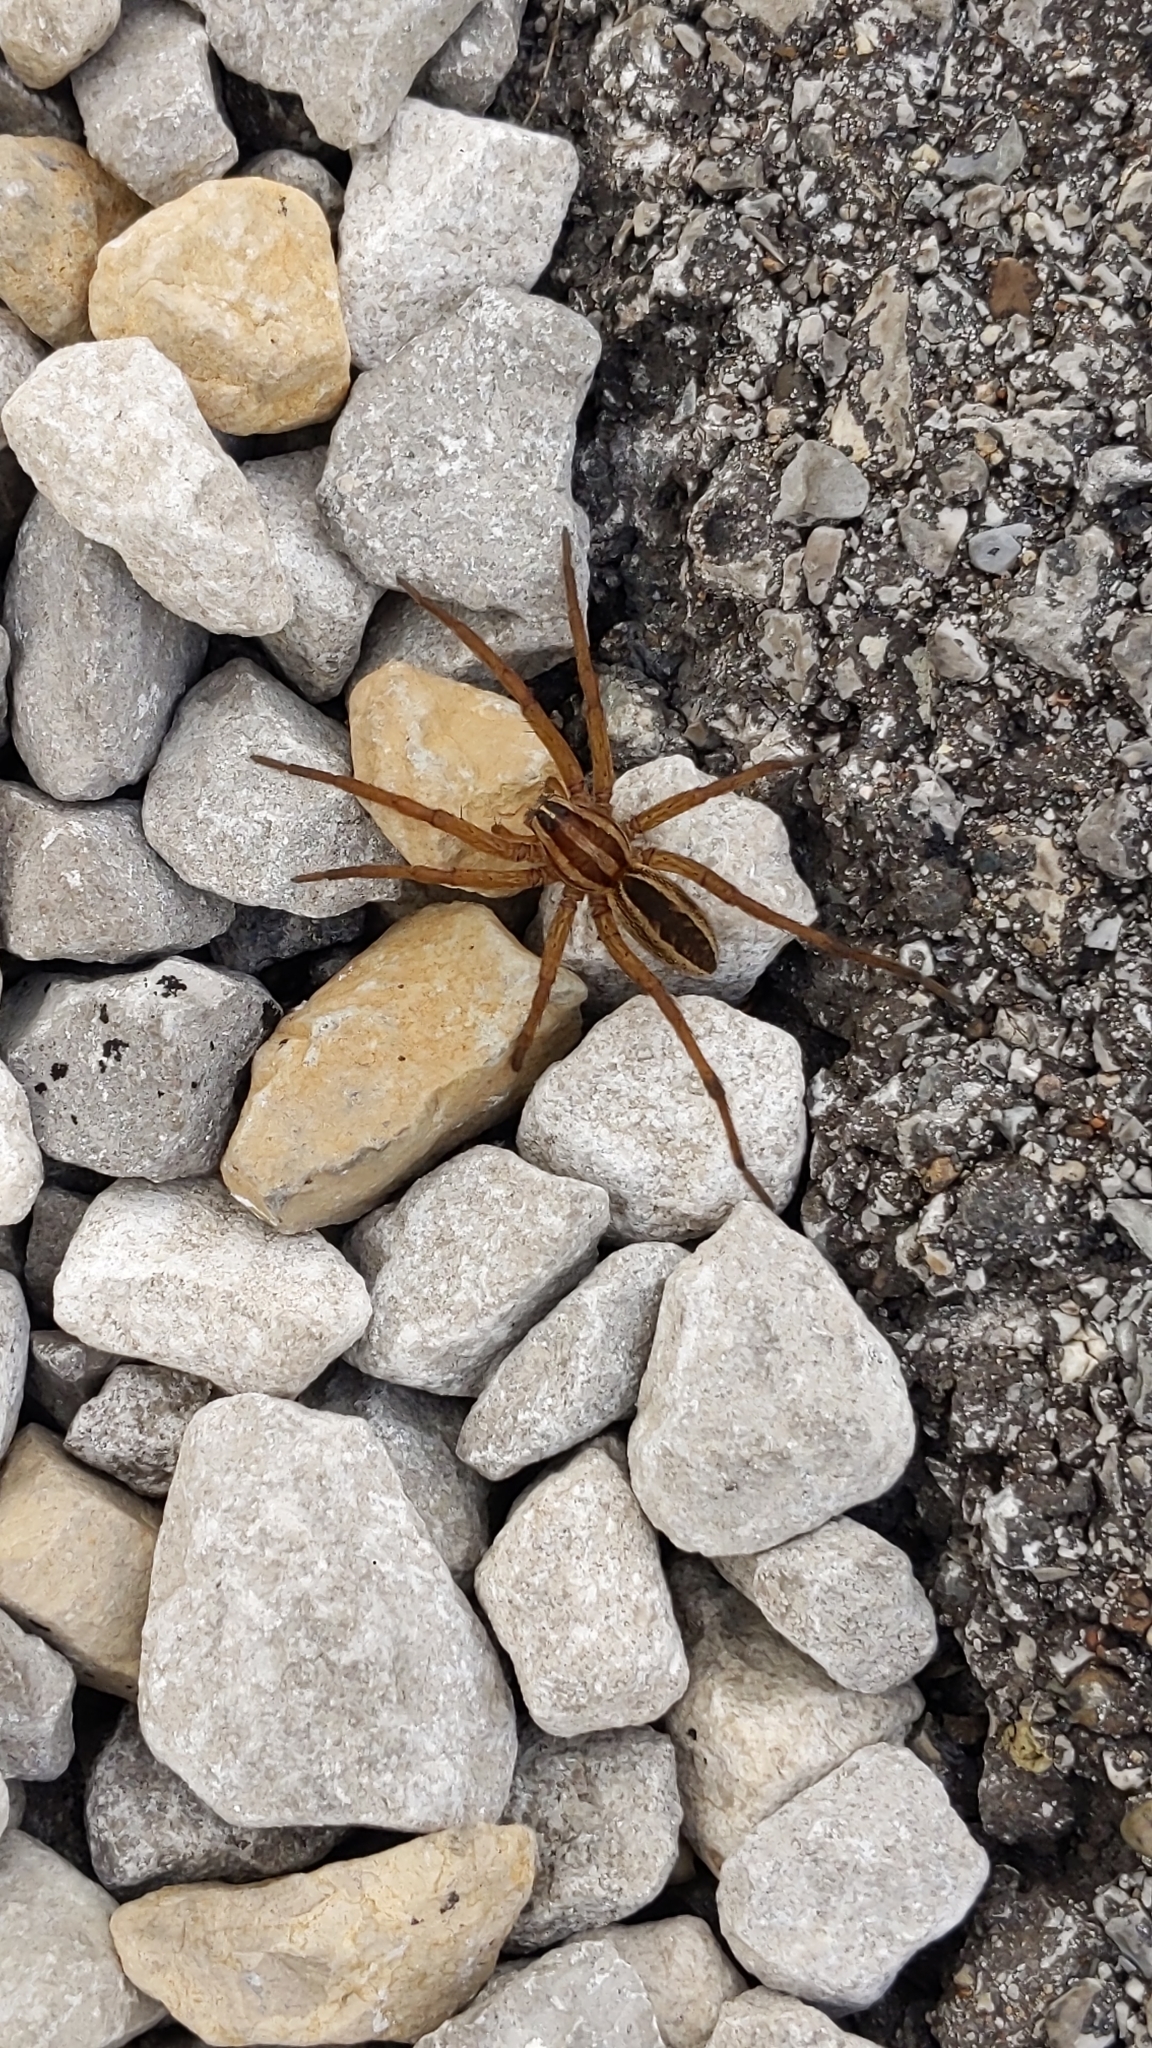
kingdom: Animalia
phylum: Arthropoda
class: Arachnida
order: Araneae
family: Lycosidae
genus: Rabidosa
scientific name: Rabidosa rabida
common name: Rabid wolf spider
